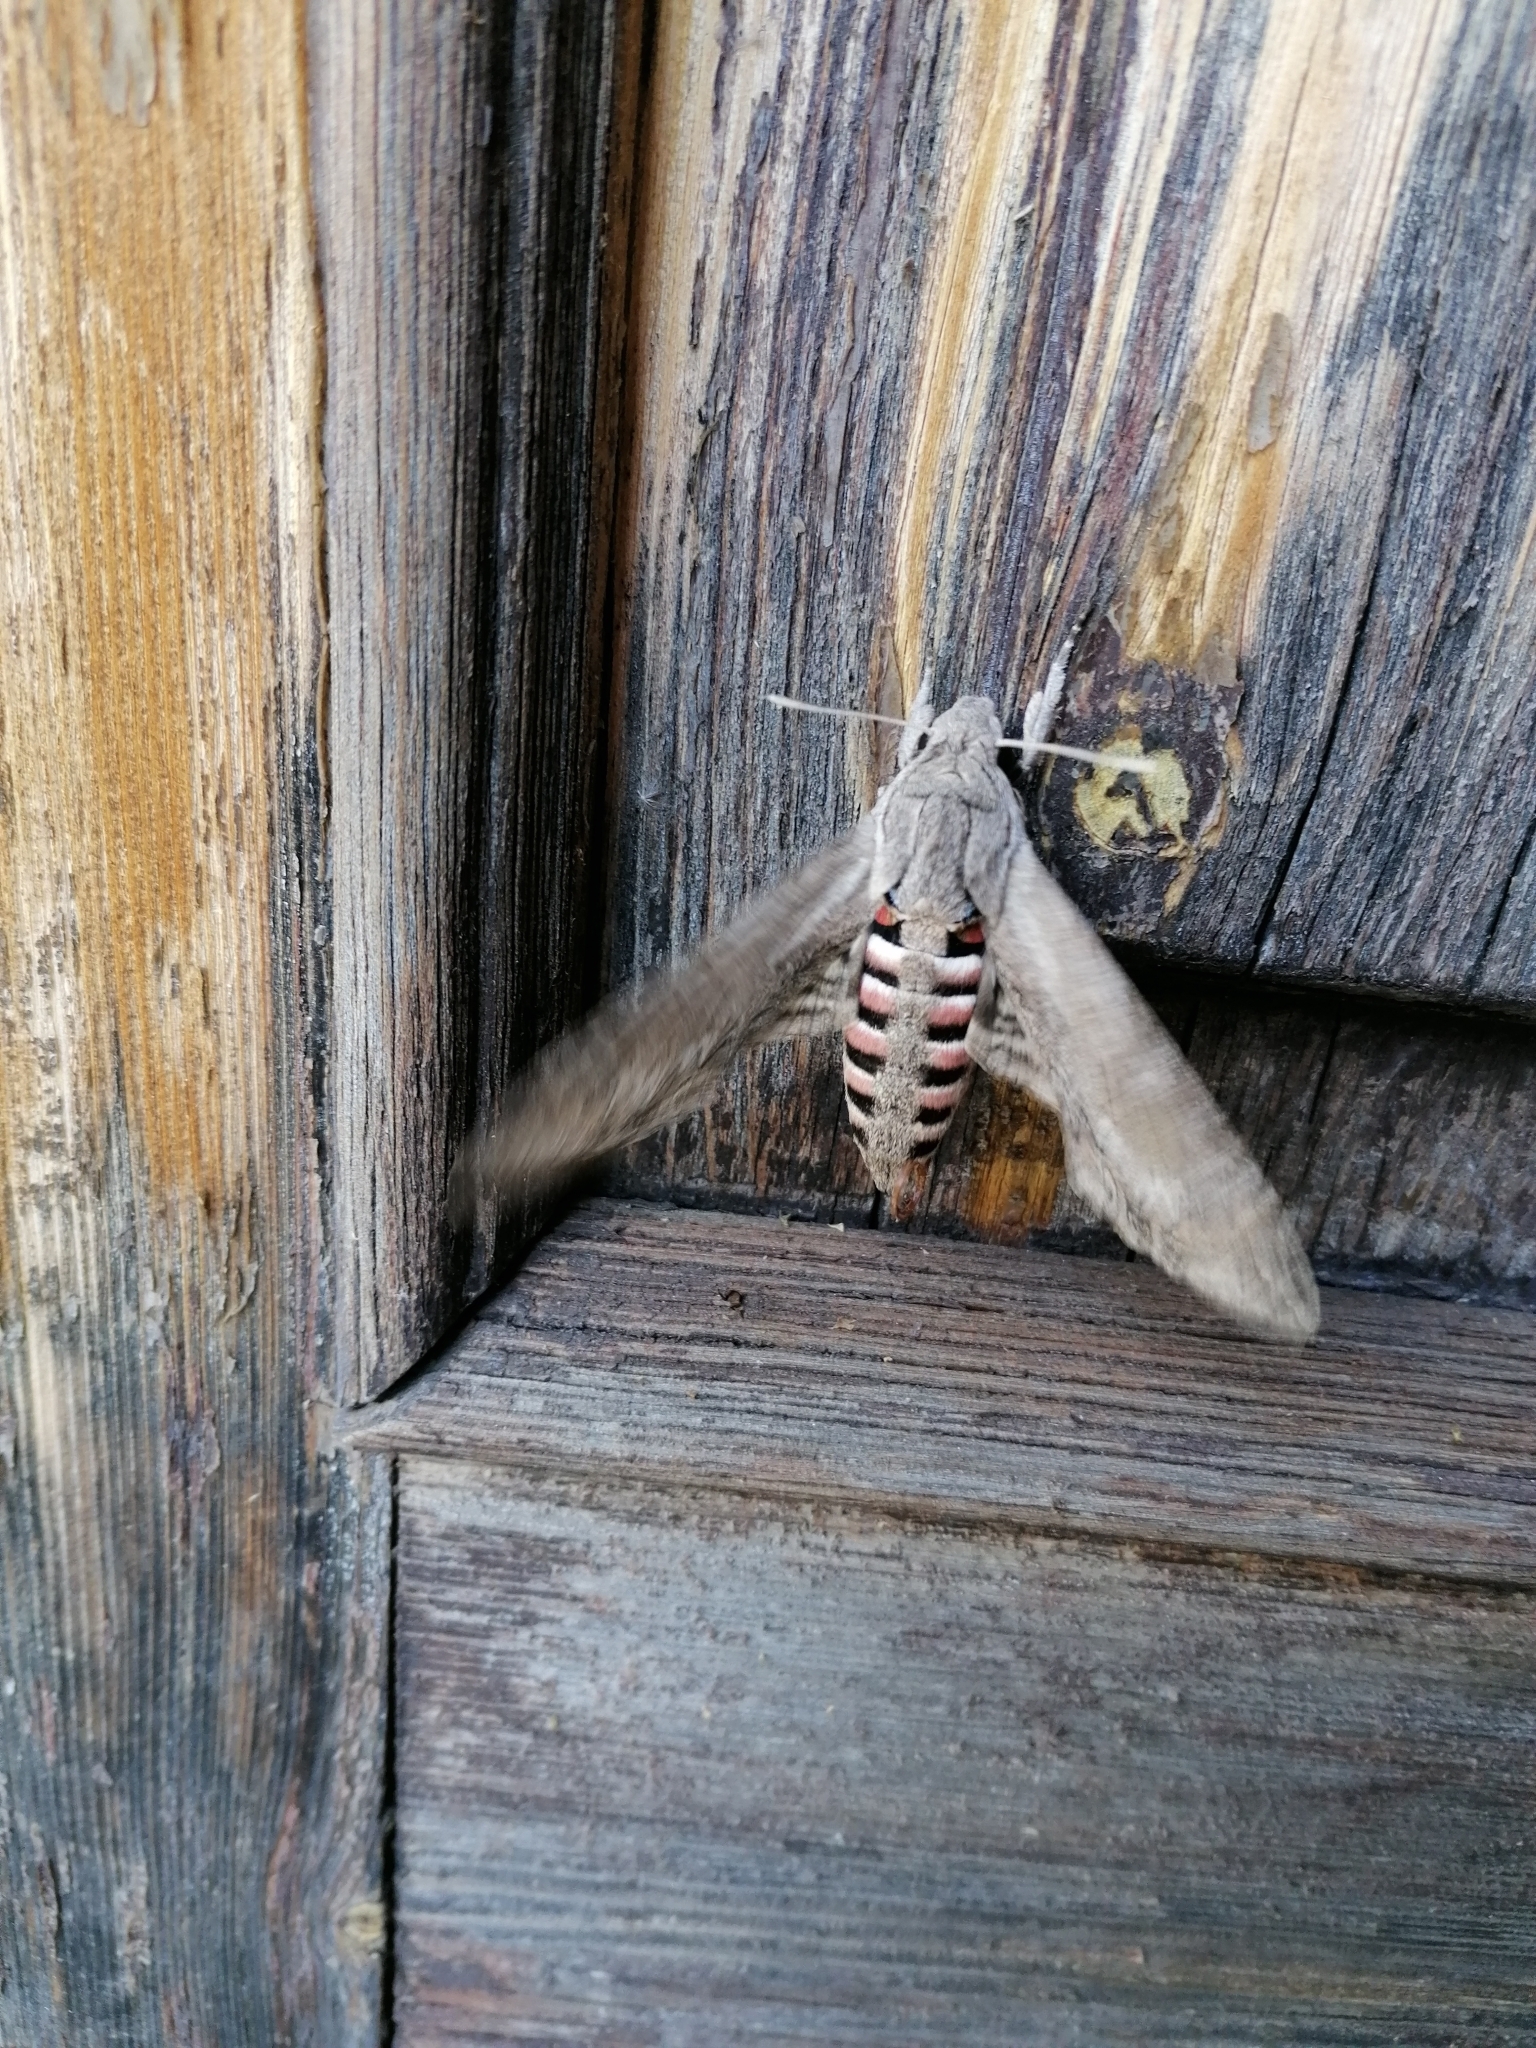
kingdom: Animalia
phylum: Arthropoda
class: Insecta
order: Lepidoptera
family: Sphingidae
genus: Agrius
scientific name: Agrius convolvuli
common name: Convolvulus hawkmoth
